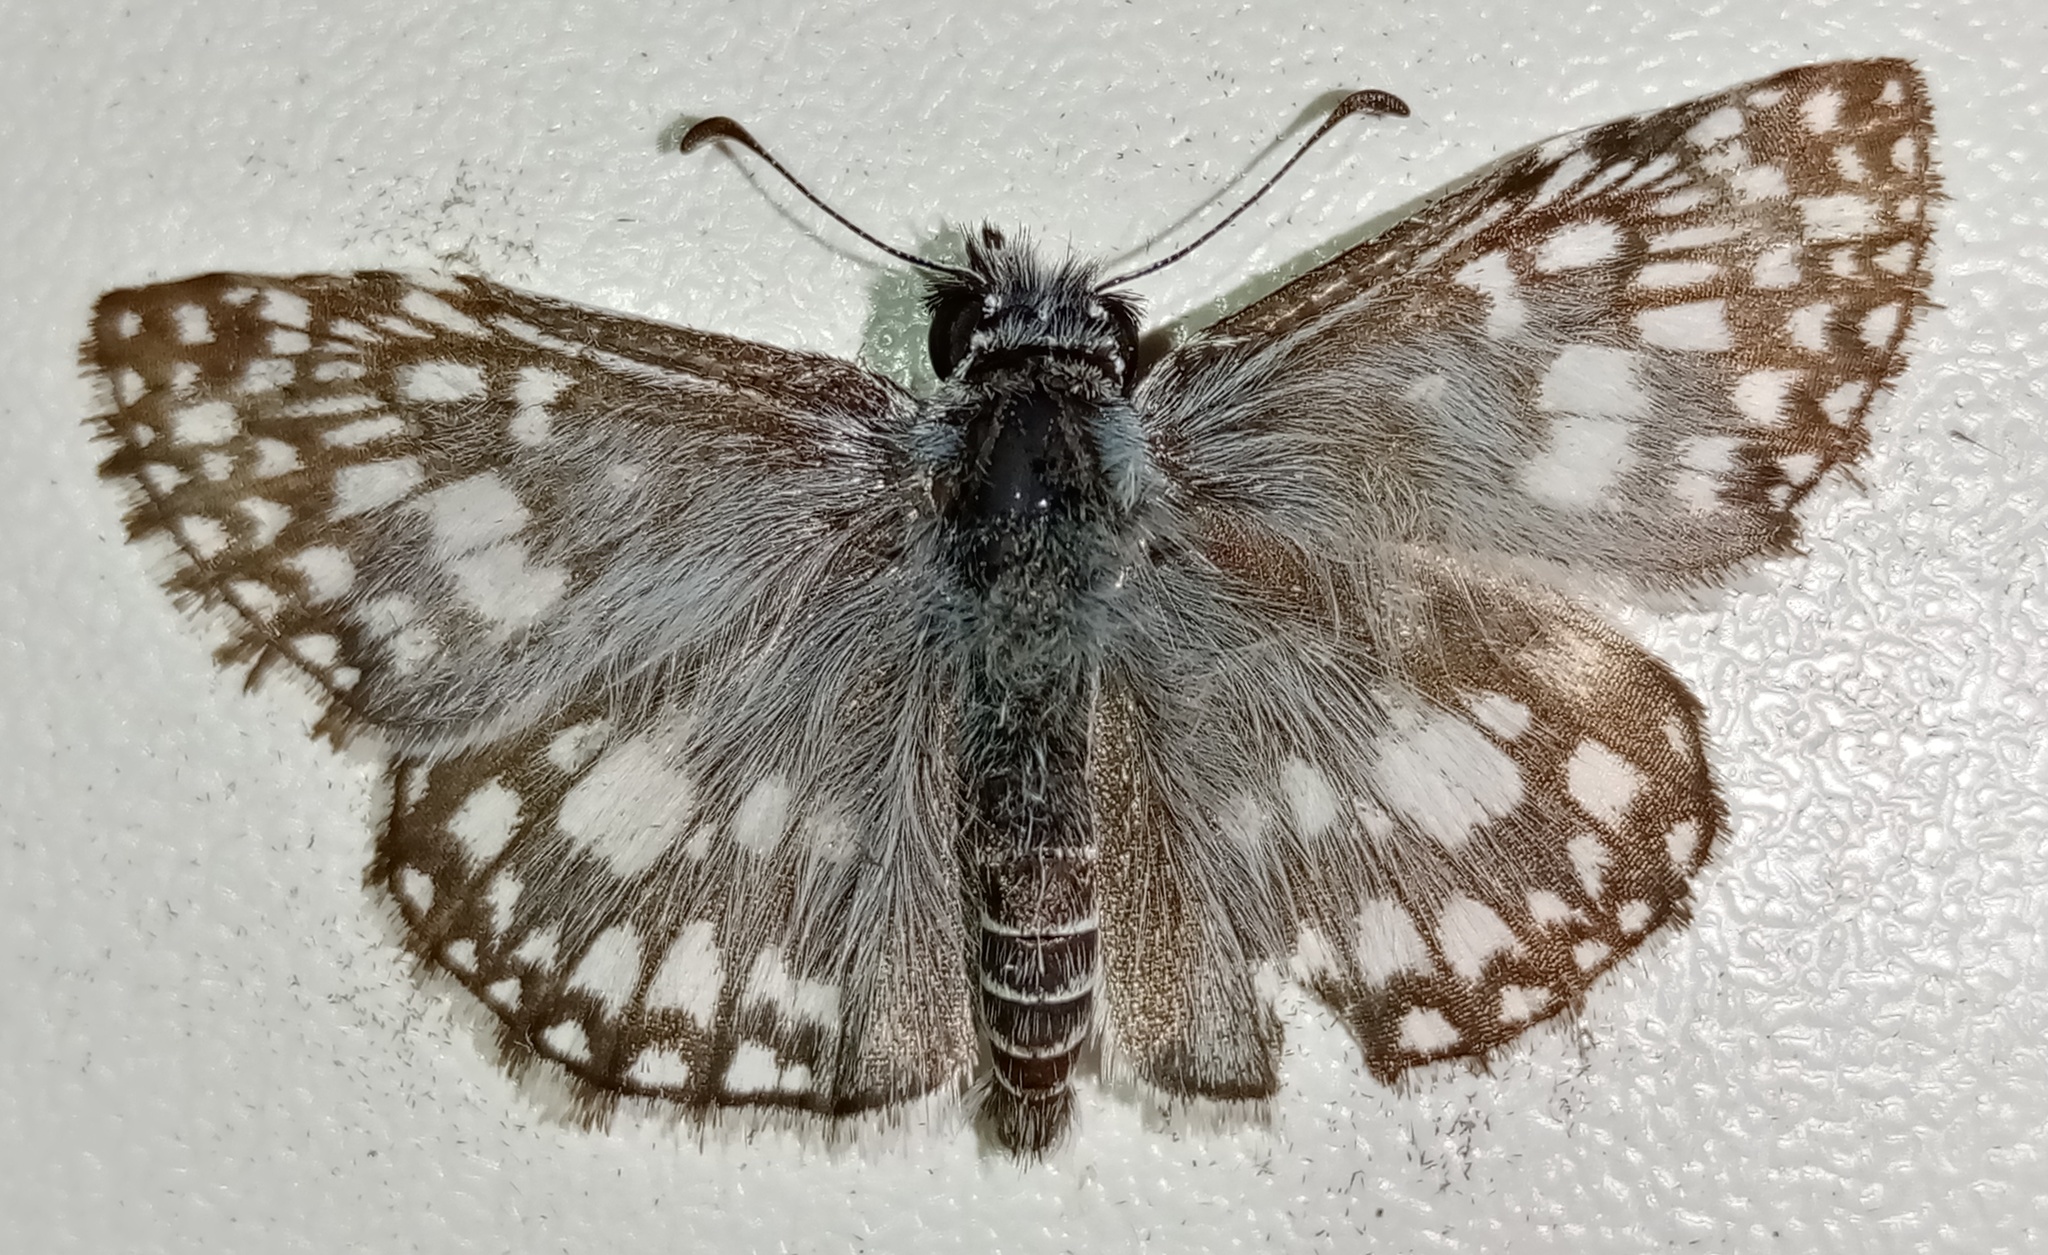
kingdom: Animalia
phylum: Arthropoda
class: Insecta
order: Lepidoptera
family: Hesperiidae
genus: Pyrgus
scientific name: Pyrgus oileus
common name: Tropical checkered-skipper
